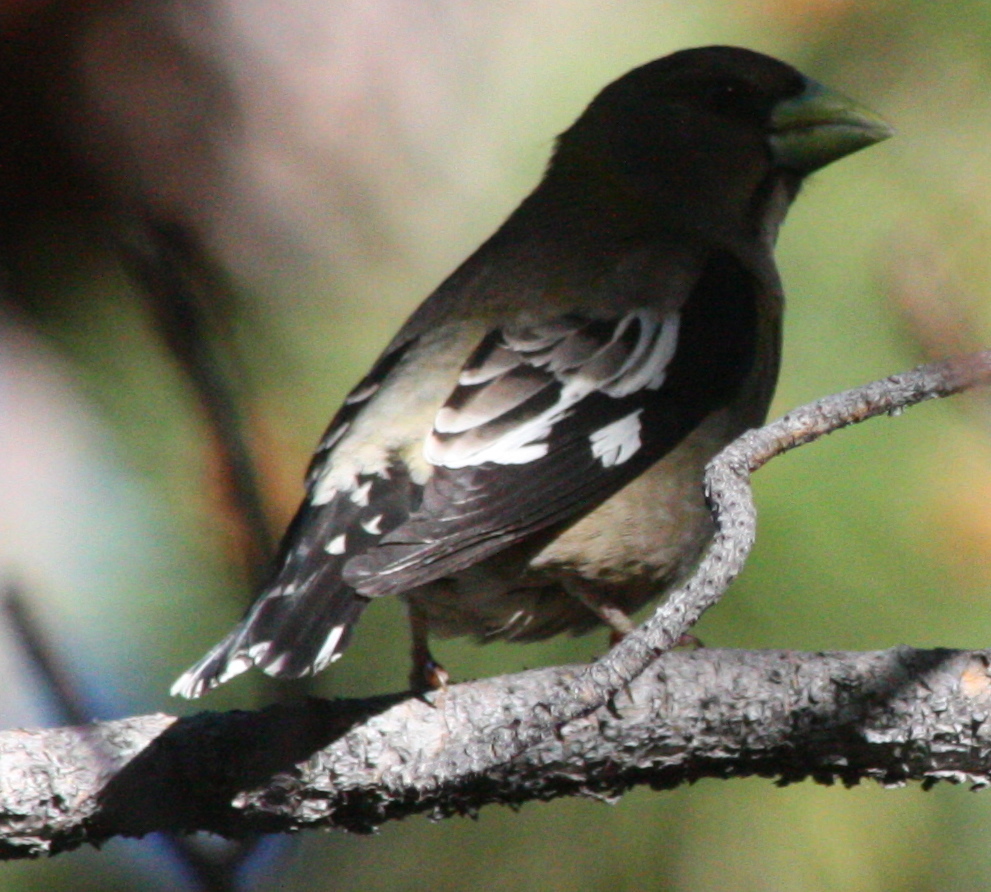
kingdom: Animalia
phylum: Chordata
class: Aves
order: Passeriformes
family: Fringillidae
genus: Hesperiphona
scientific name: Hesperiphona vespertina
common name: Evening grosbeak
